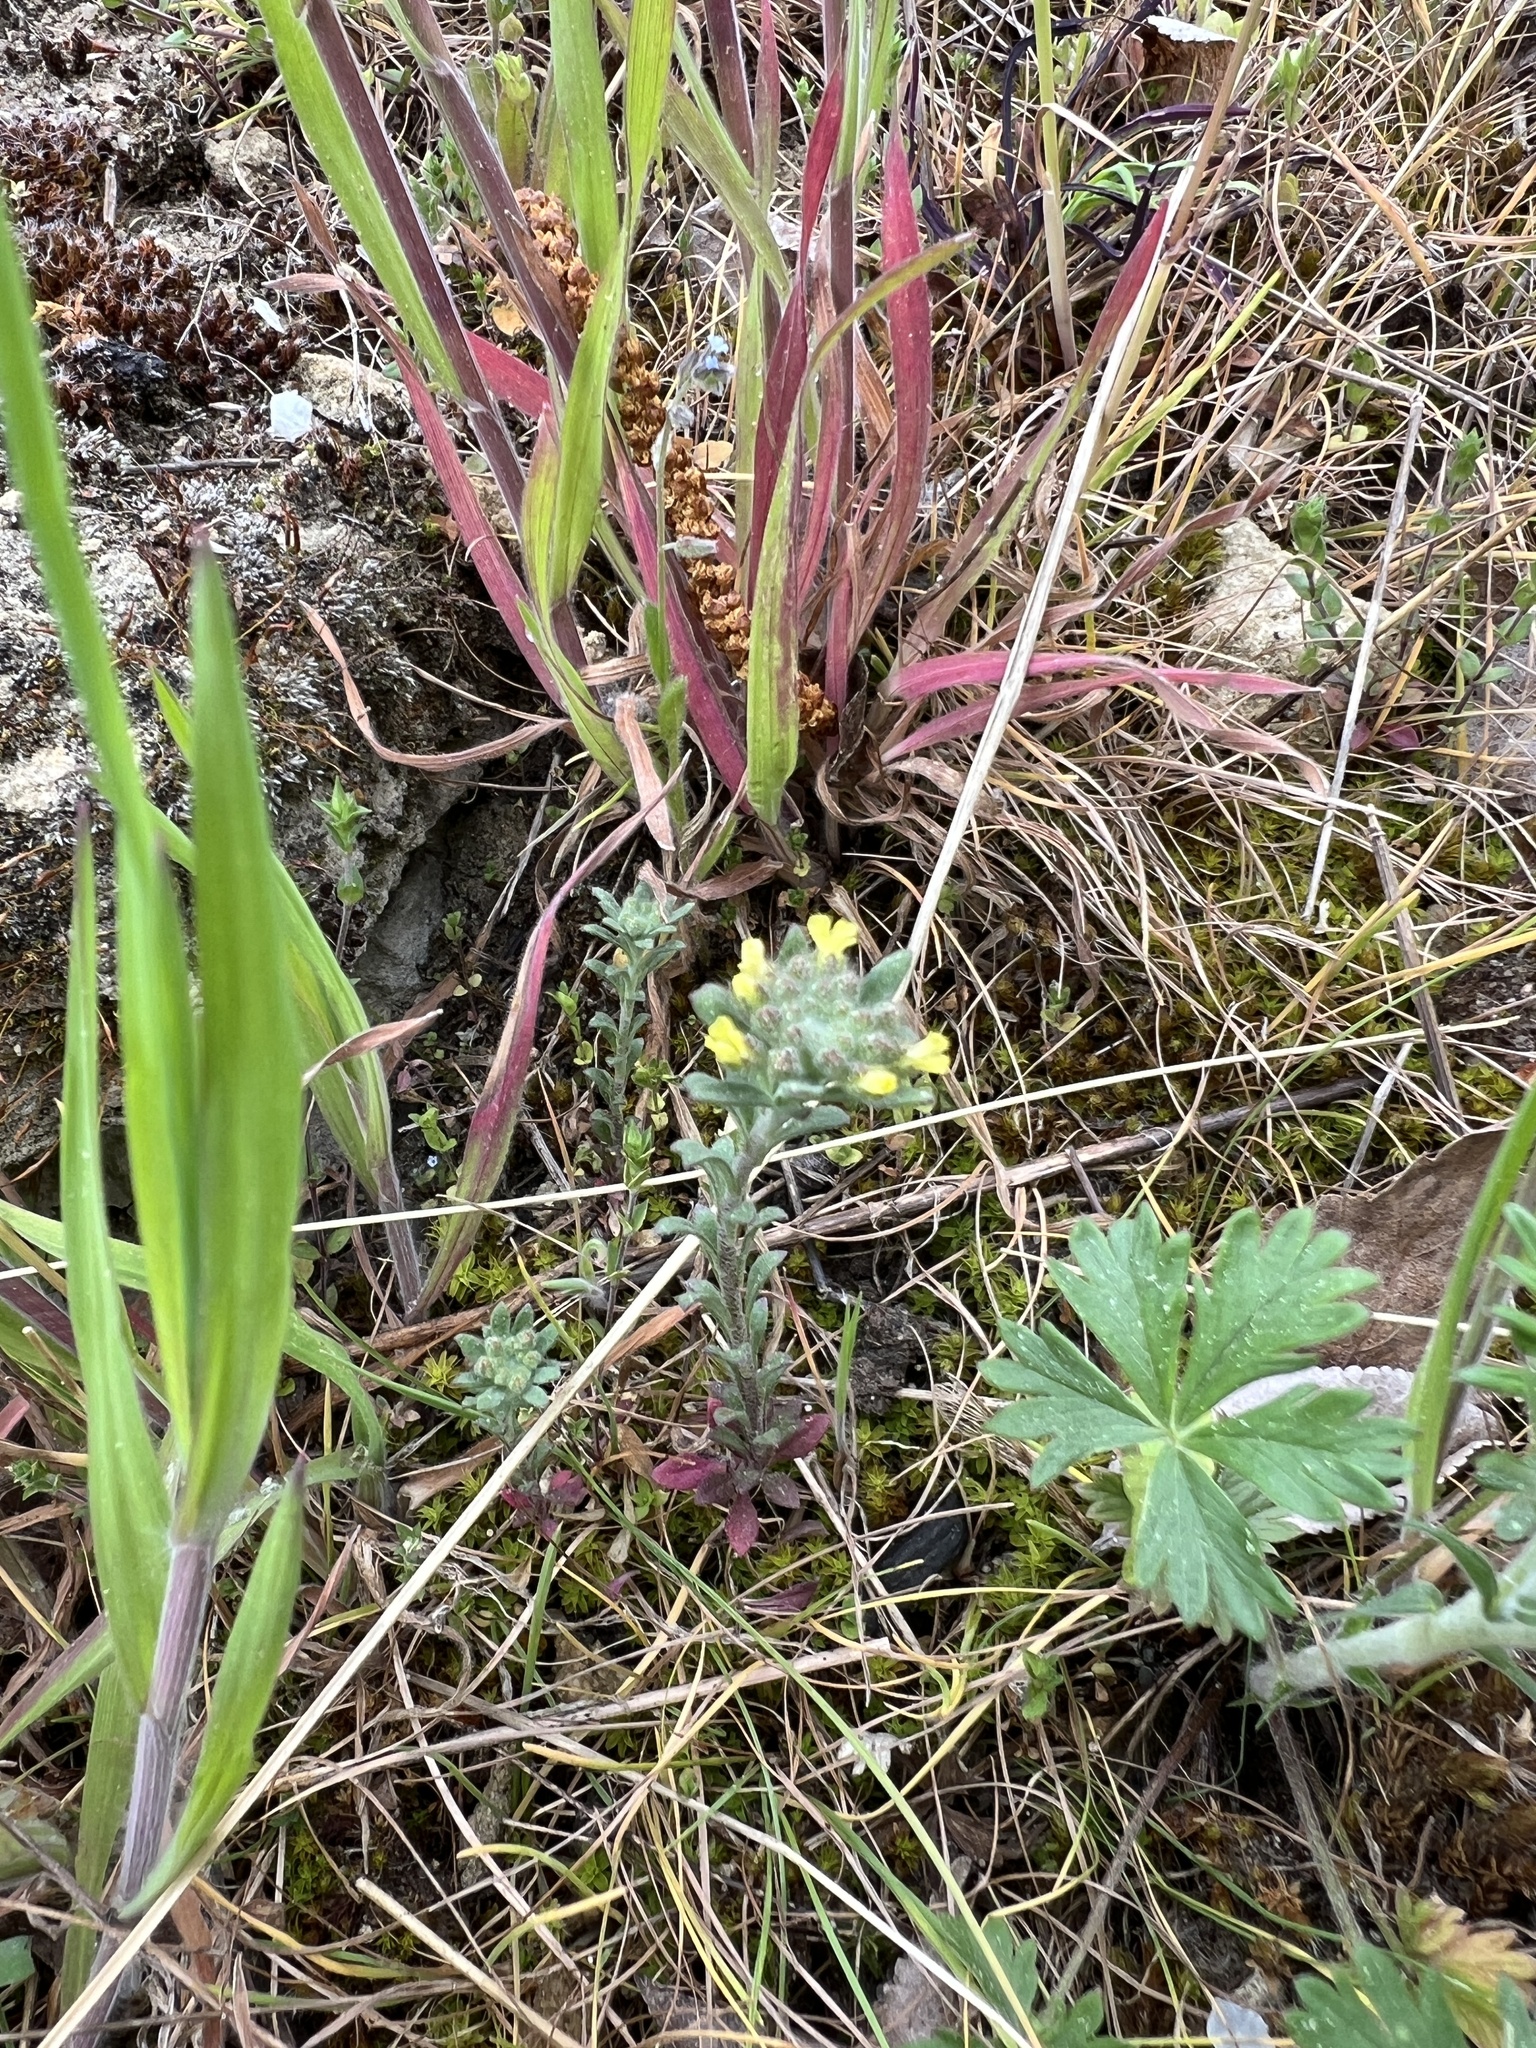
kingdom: Plantae
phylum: Tracheophyta
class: Magnoliopsida
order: Brassicales
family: Brassicaceae
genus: Alyssum
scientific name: Alyssum alyssoides
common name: Small alison
